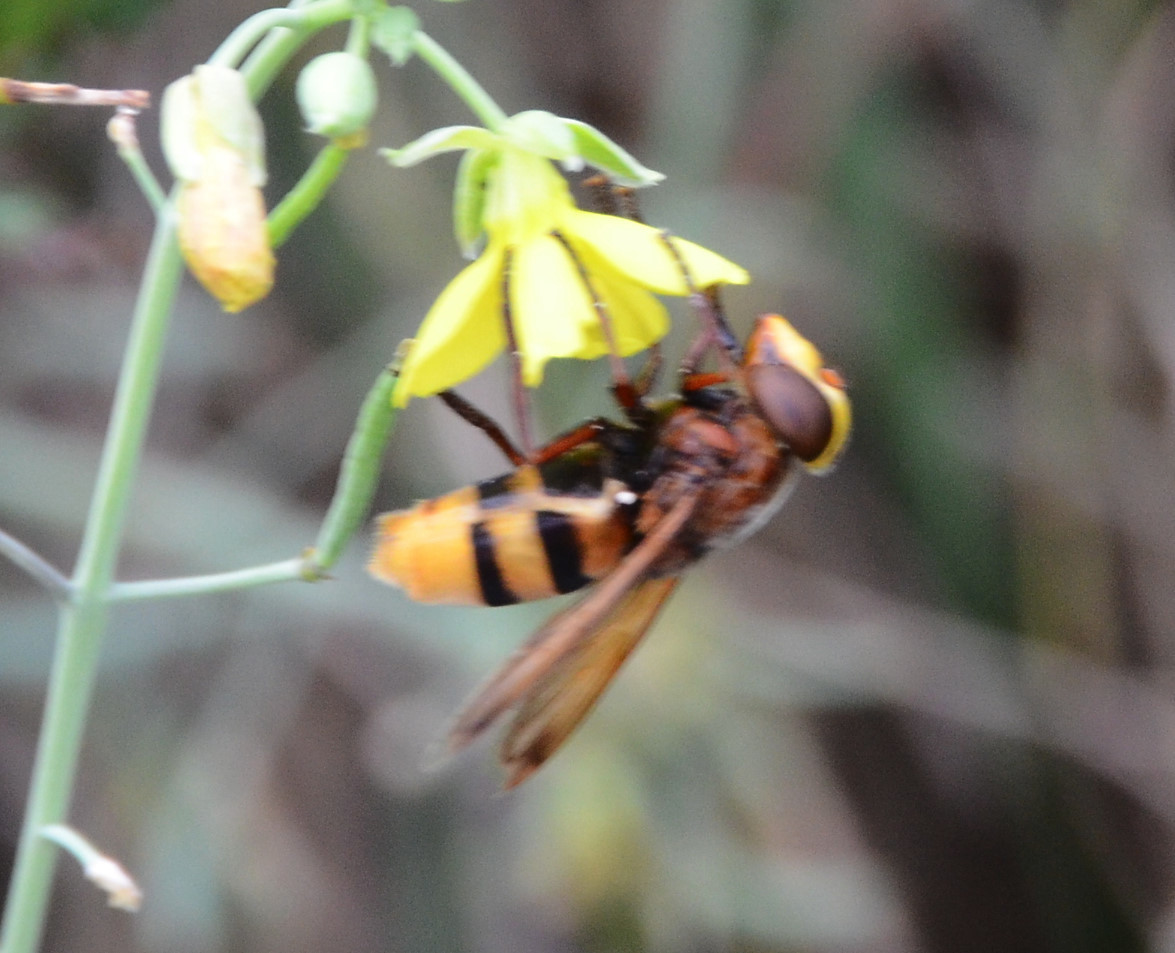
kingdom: Animalia
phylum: Arthropoda
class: Insecta
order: Diptera
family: Syrphidae
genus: Volucella
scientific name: Volucella zonaria
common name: Hornet hoverfly
